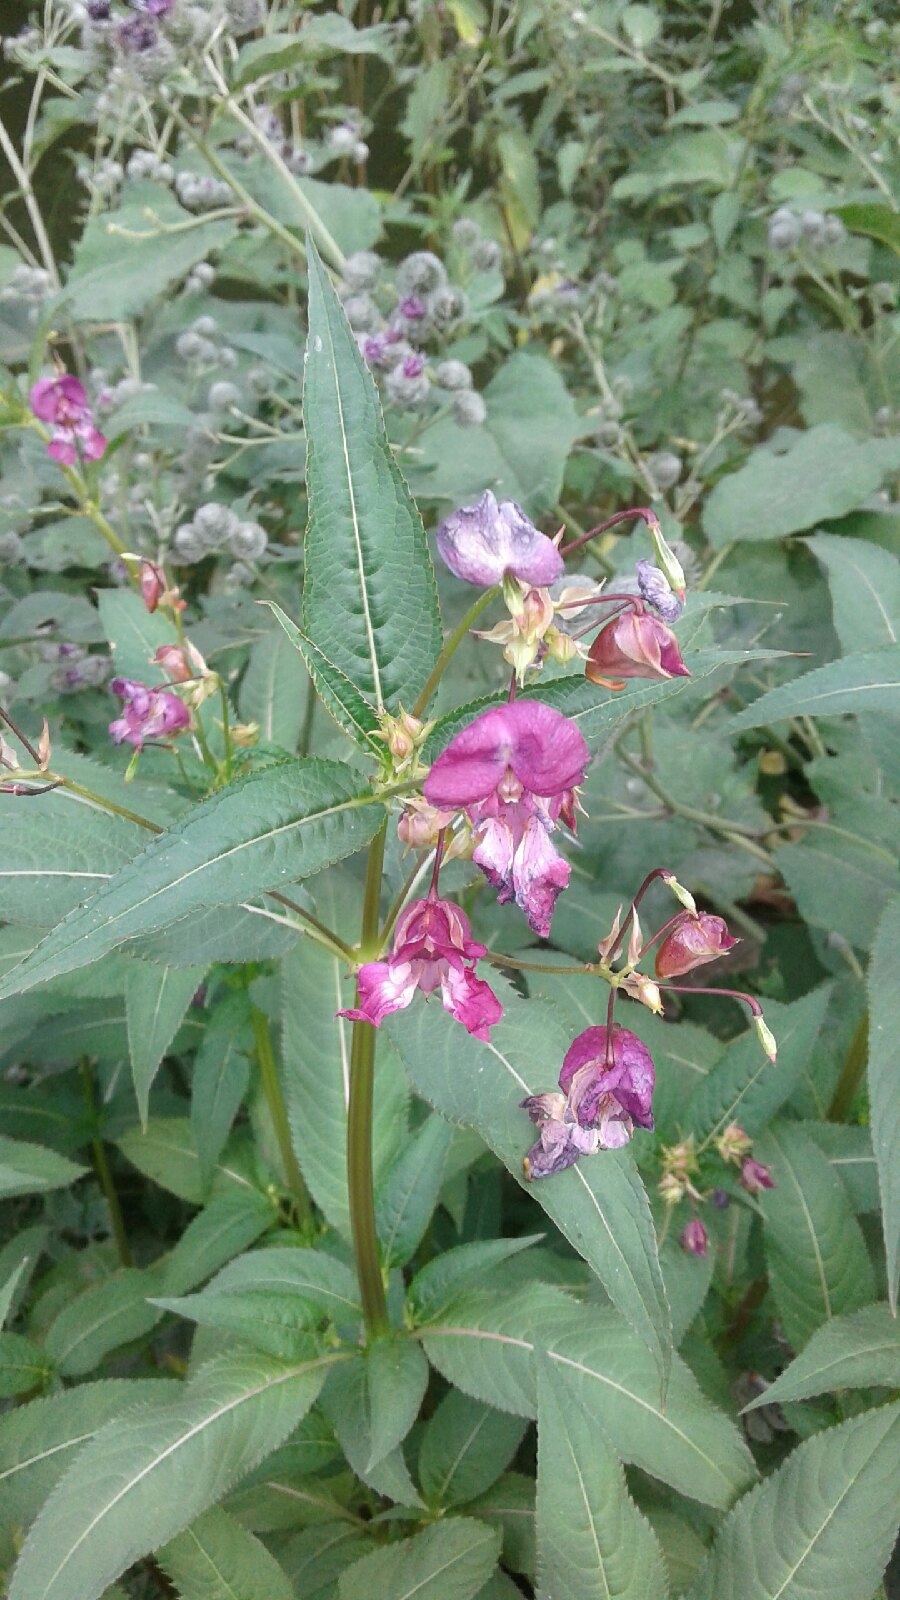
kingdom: Plantae
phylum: Tracheophyta
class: Magnoliopsida
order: Ericales
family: Balsaminaceae
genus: Impatiens
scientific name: Impatiens glandulifera
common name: Himalayan balsam
